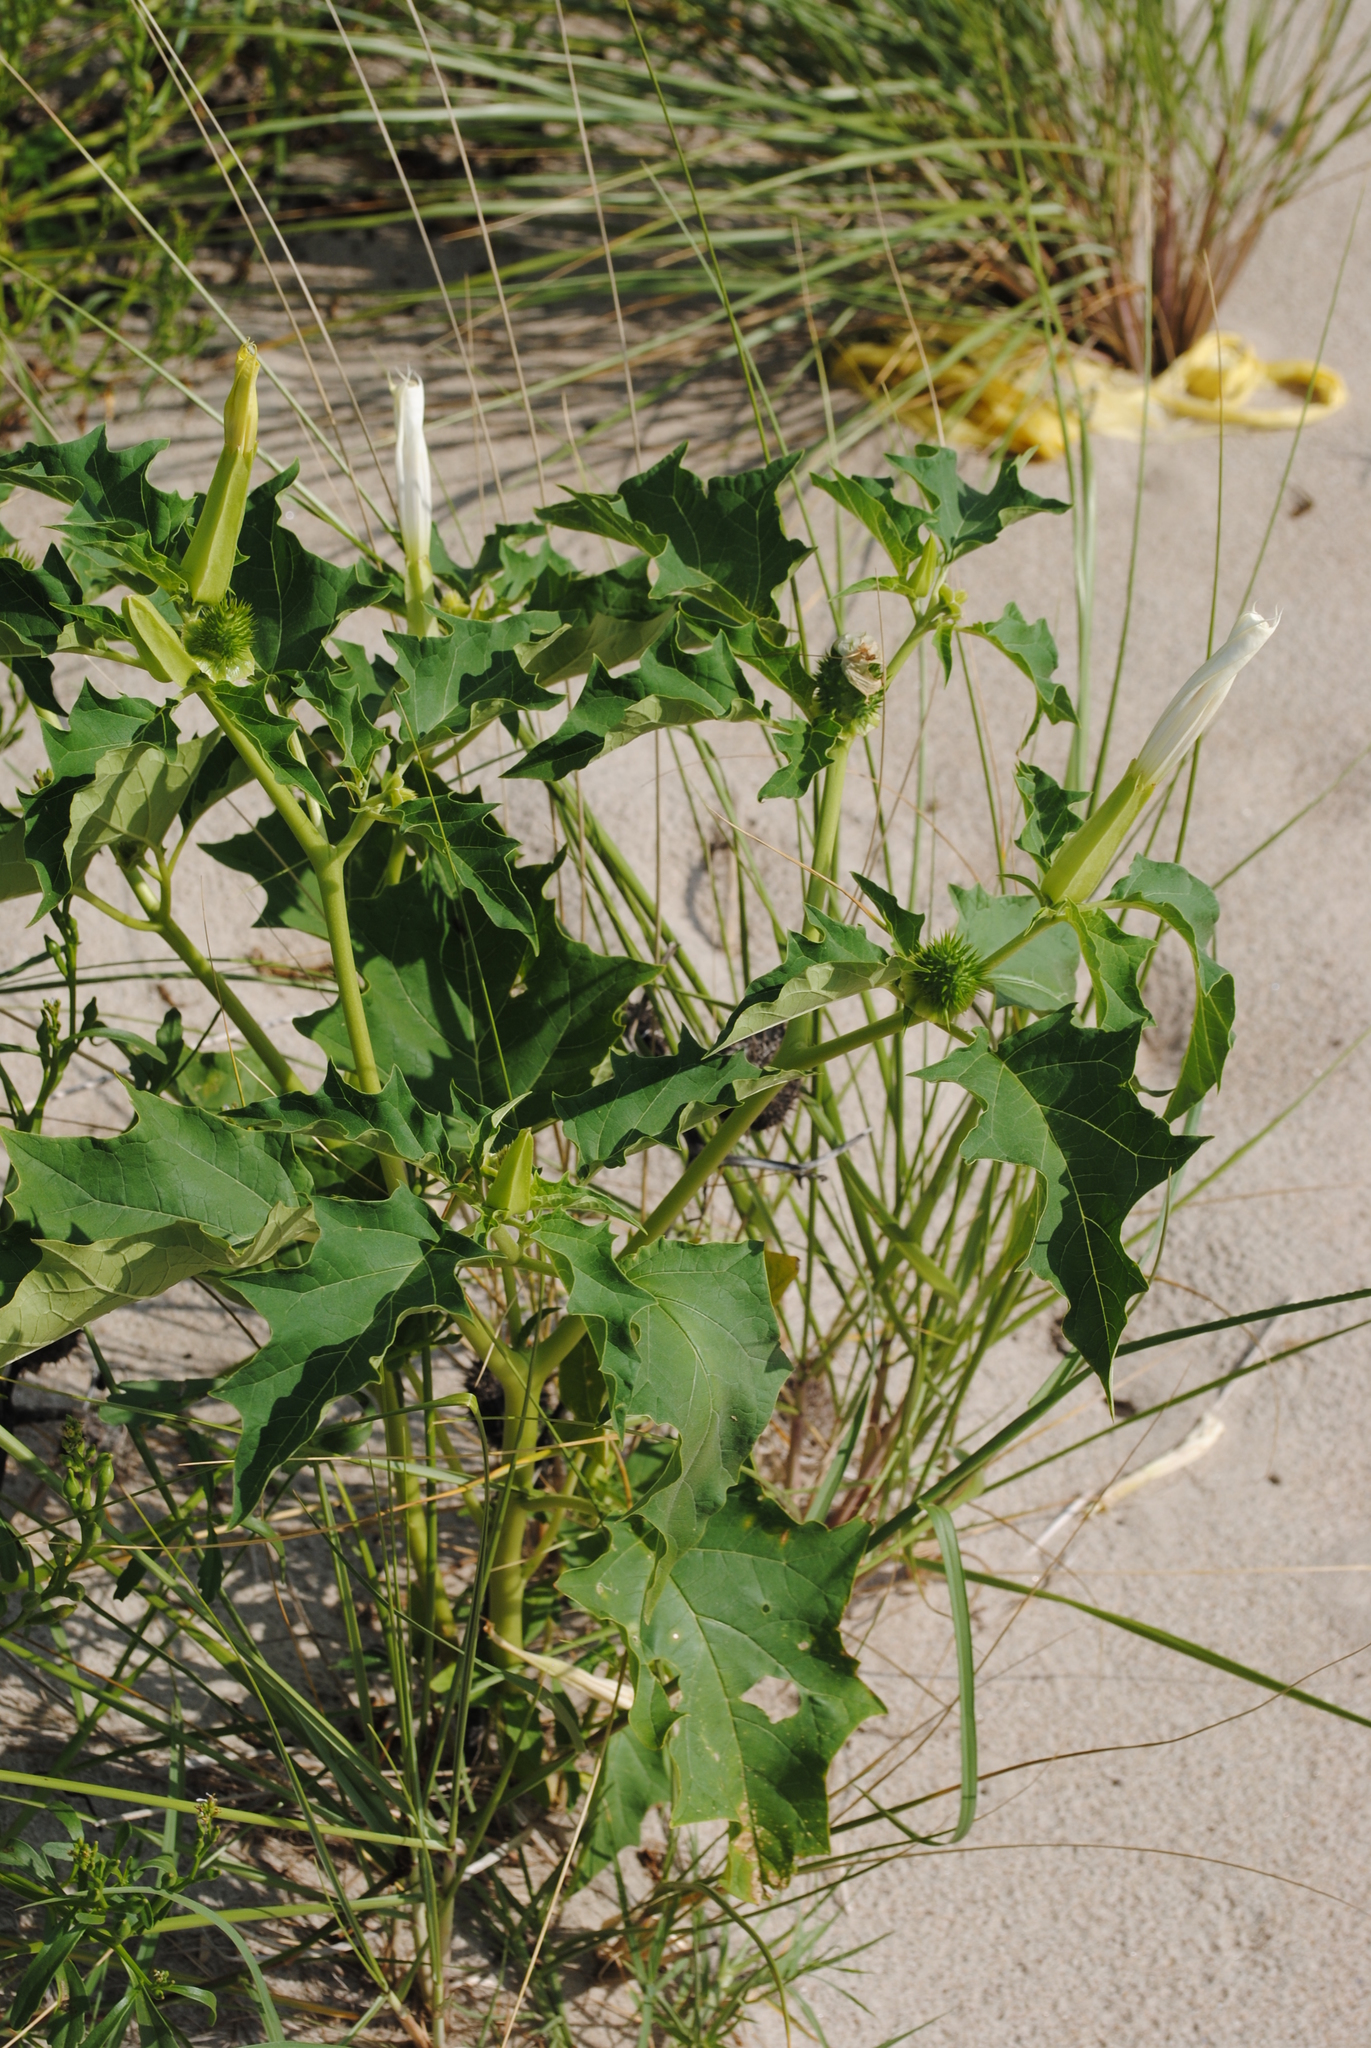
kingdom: Plantae
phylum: Tracheophyta
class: Magnoliopsida
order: Solanales
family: Solanaceae
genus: Datura
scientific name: Datura stramonium
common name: Thorn-apple
